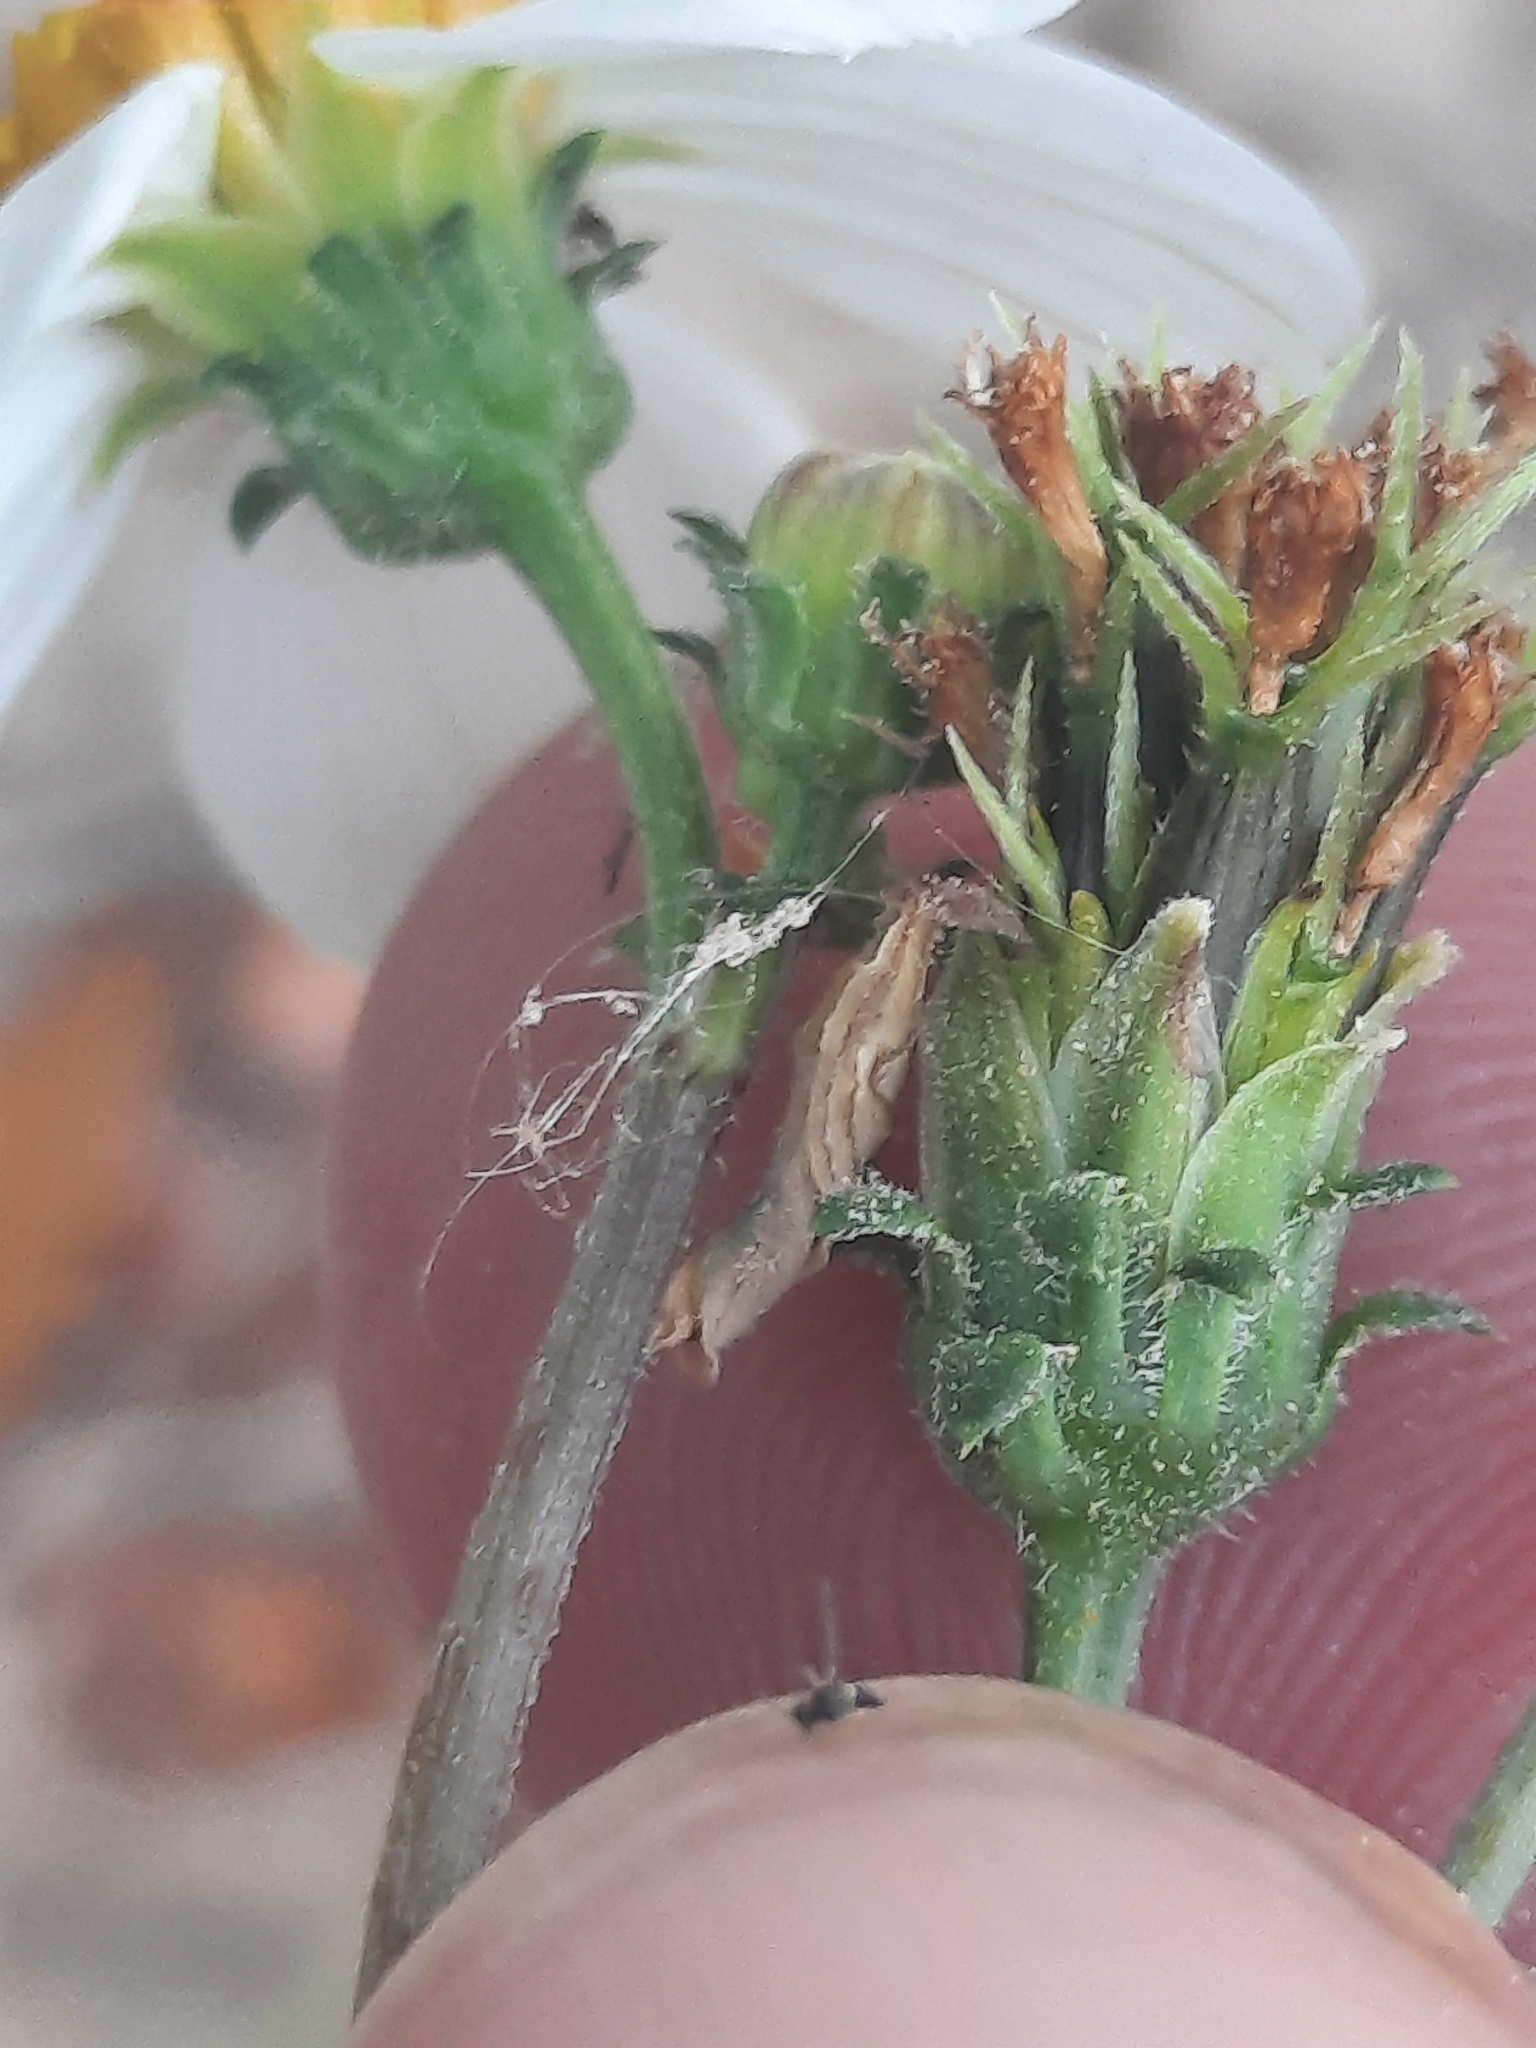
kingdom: Plantae
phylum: Tracheophyta
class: Magnoliopsida
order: Asterales
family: Asteraceae
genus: Bidens
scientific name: Bidens alba
